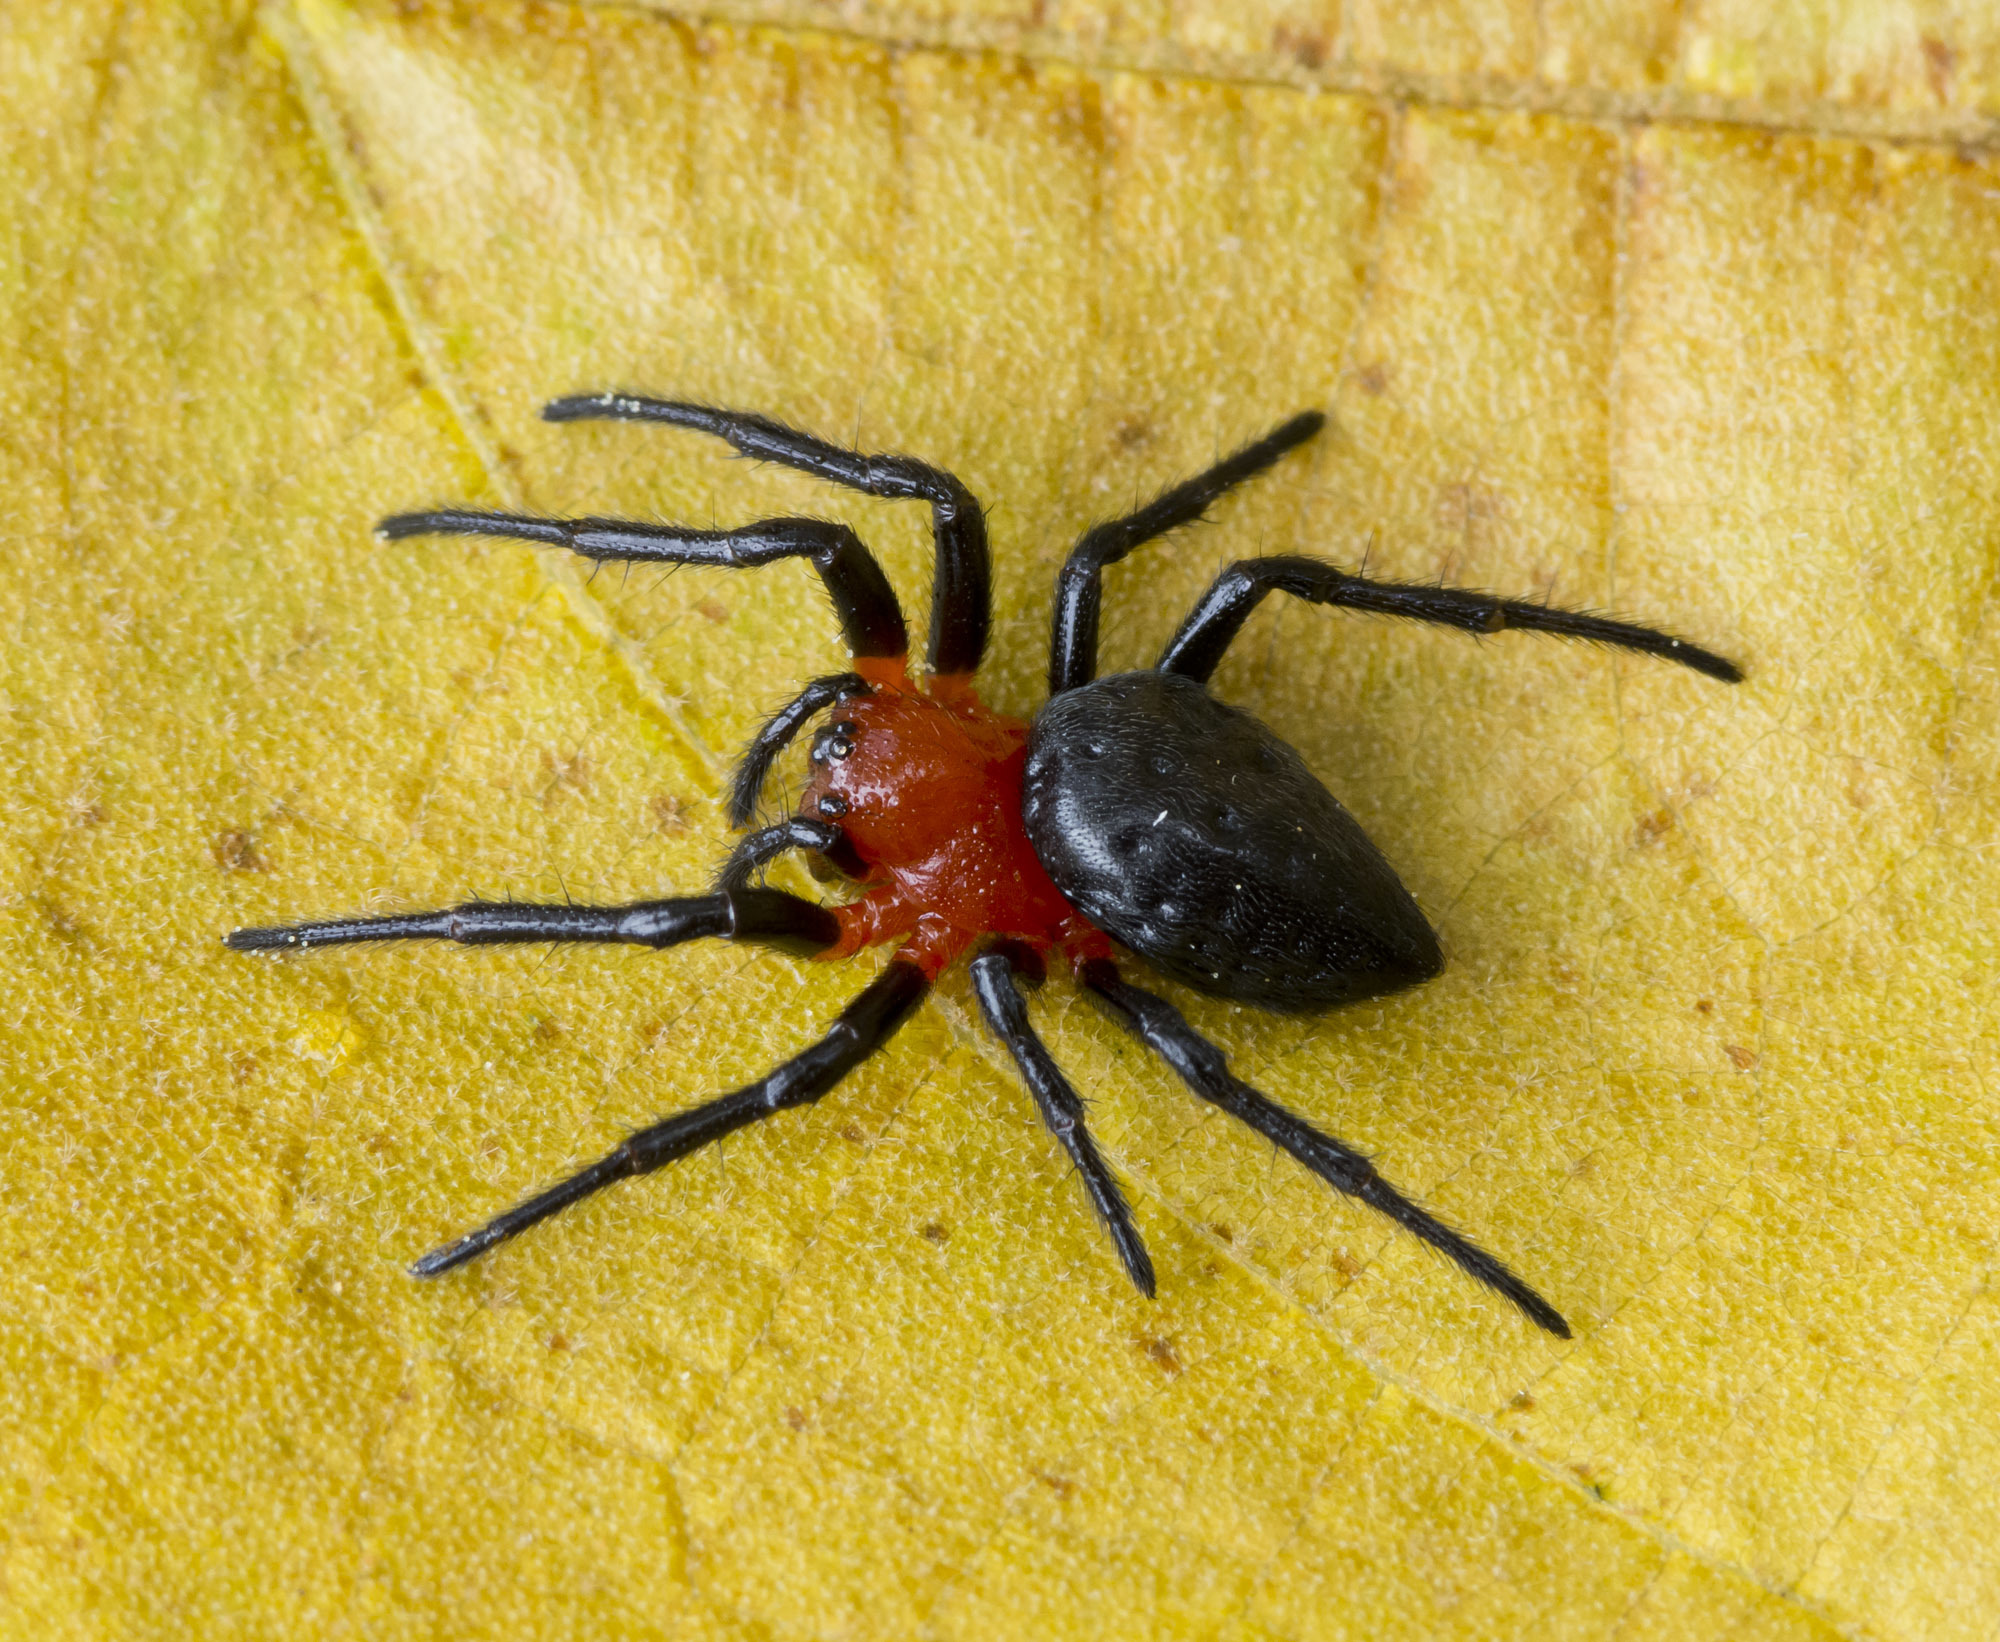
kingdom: Animalia
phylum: Arthropoda
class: Arachnida
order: Araneae
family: Araneidae
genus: Alpaida
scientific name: Alpaida acuta
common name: Orb weavers
